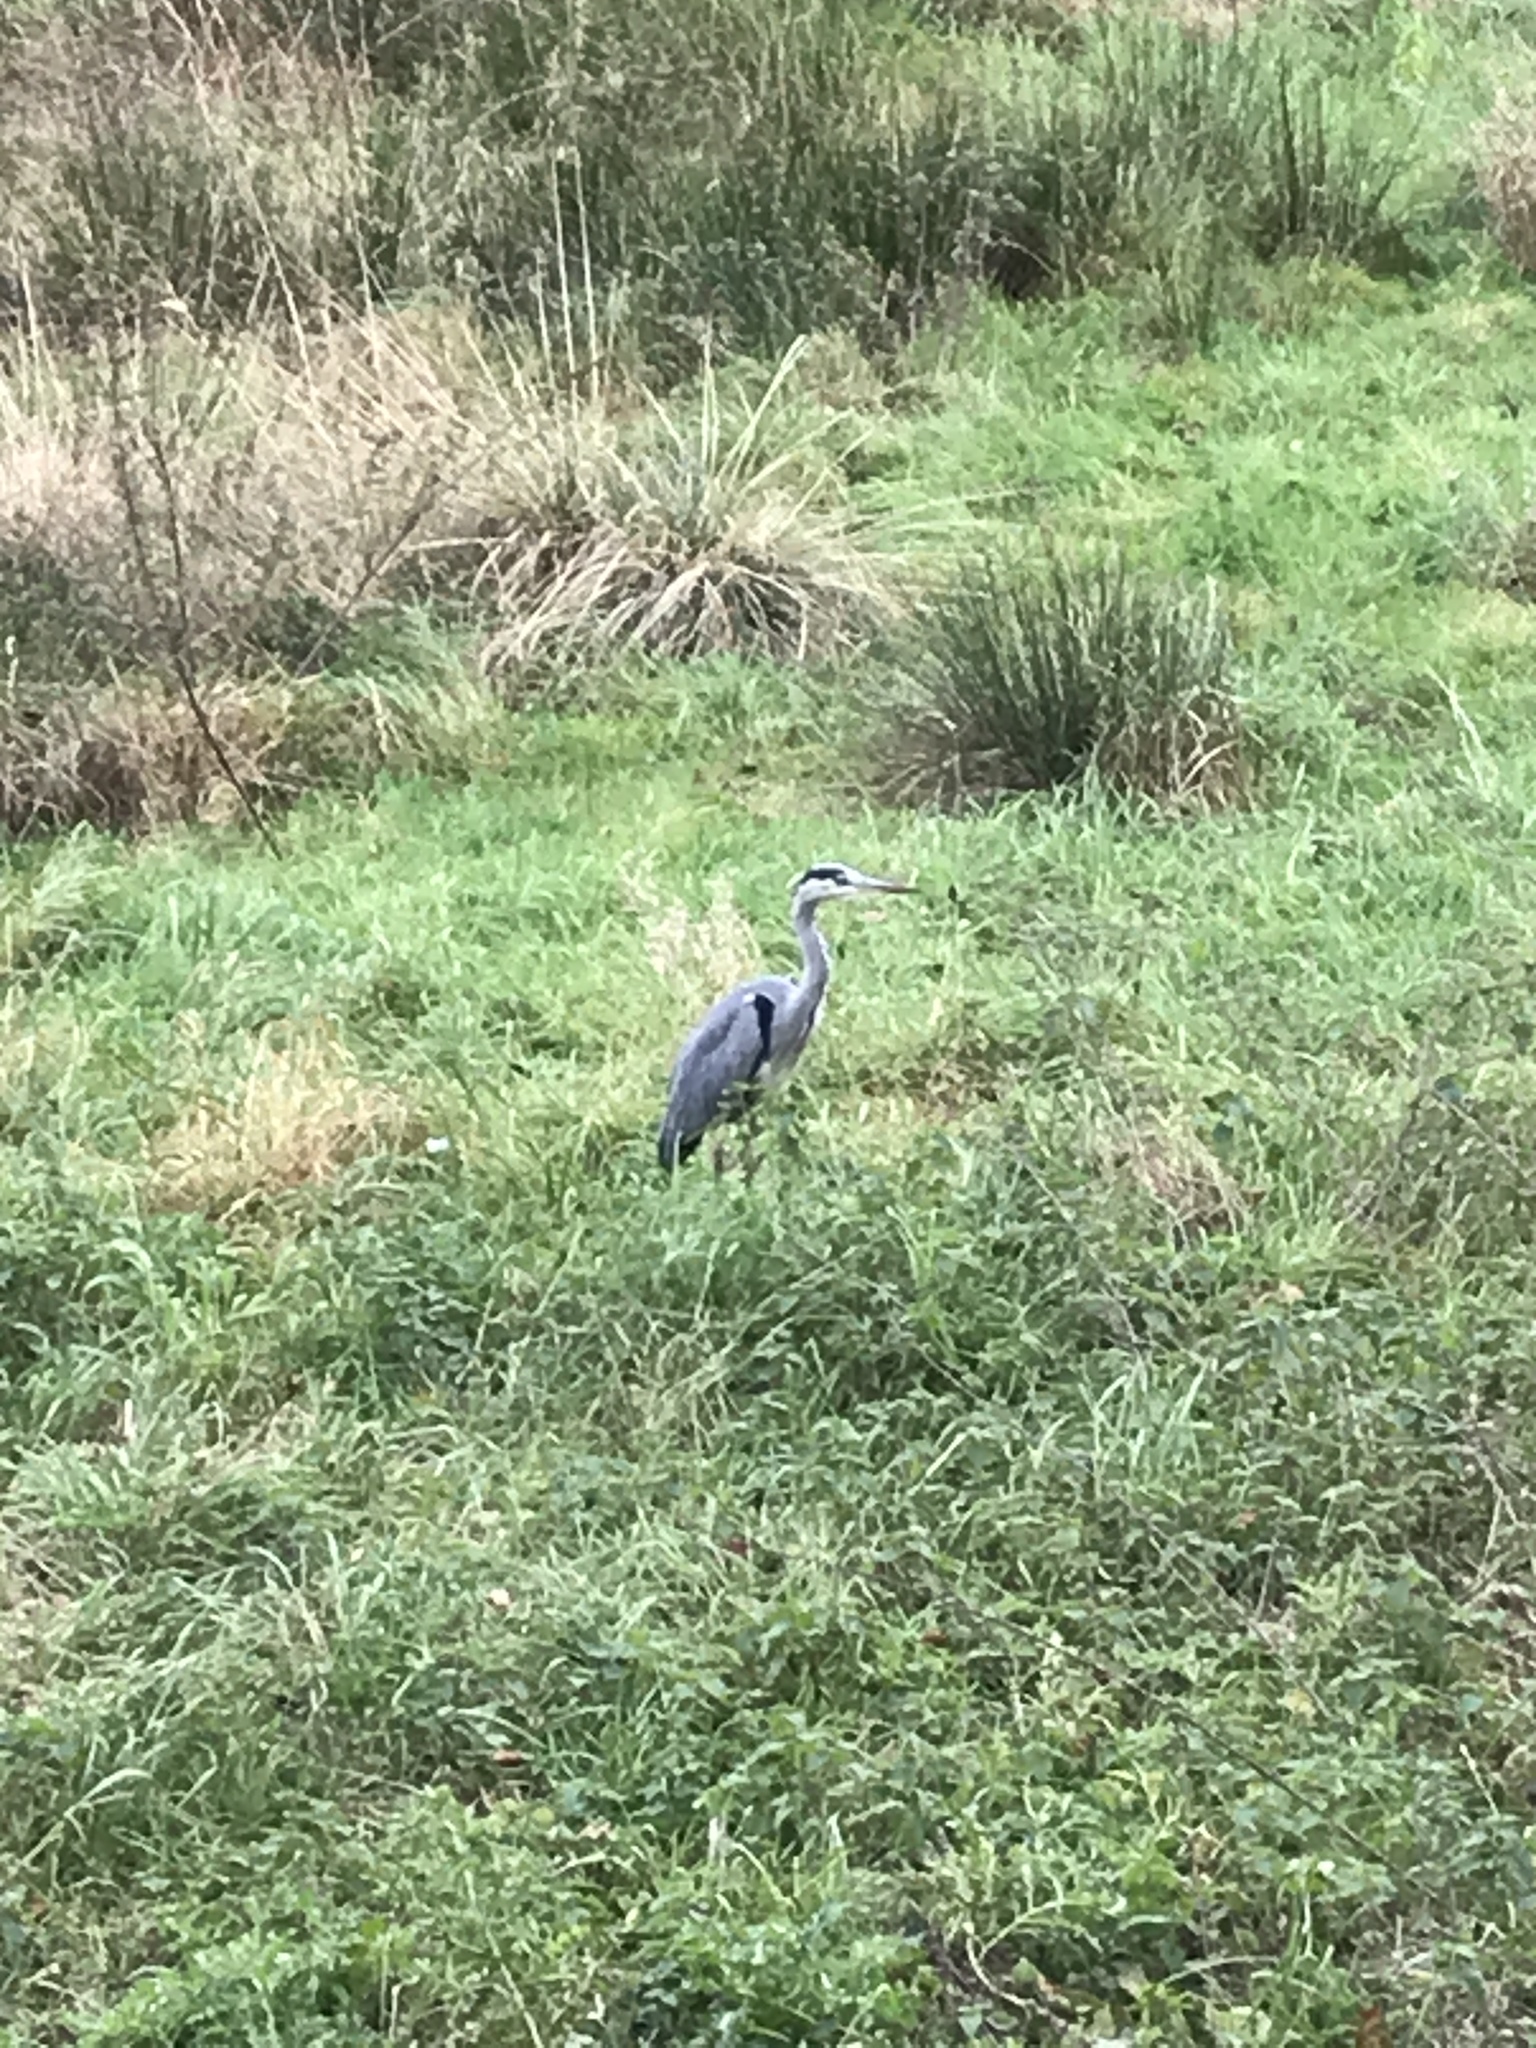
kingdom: Animalia
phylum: Chordata
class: Aves
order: Pelecaniformes
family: Ardeidae
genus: Ardea
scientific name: Ardea cinerea
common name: Grey heron
